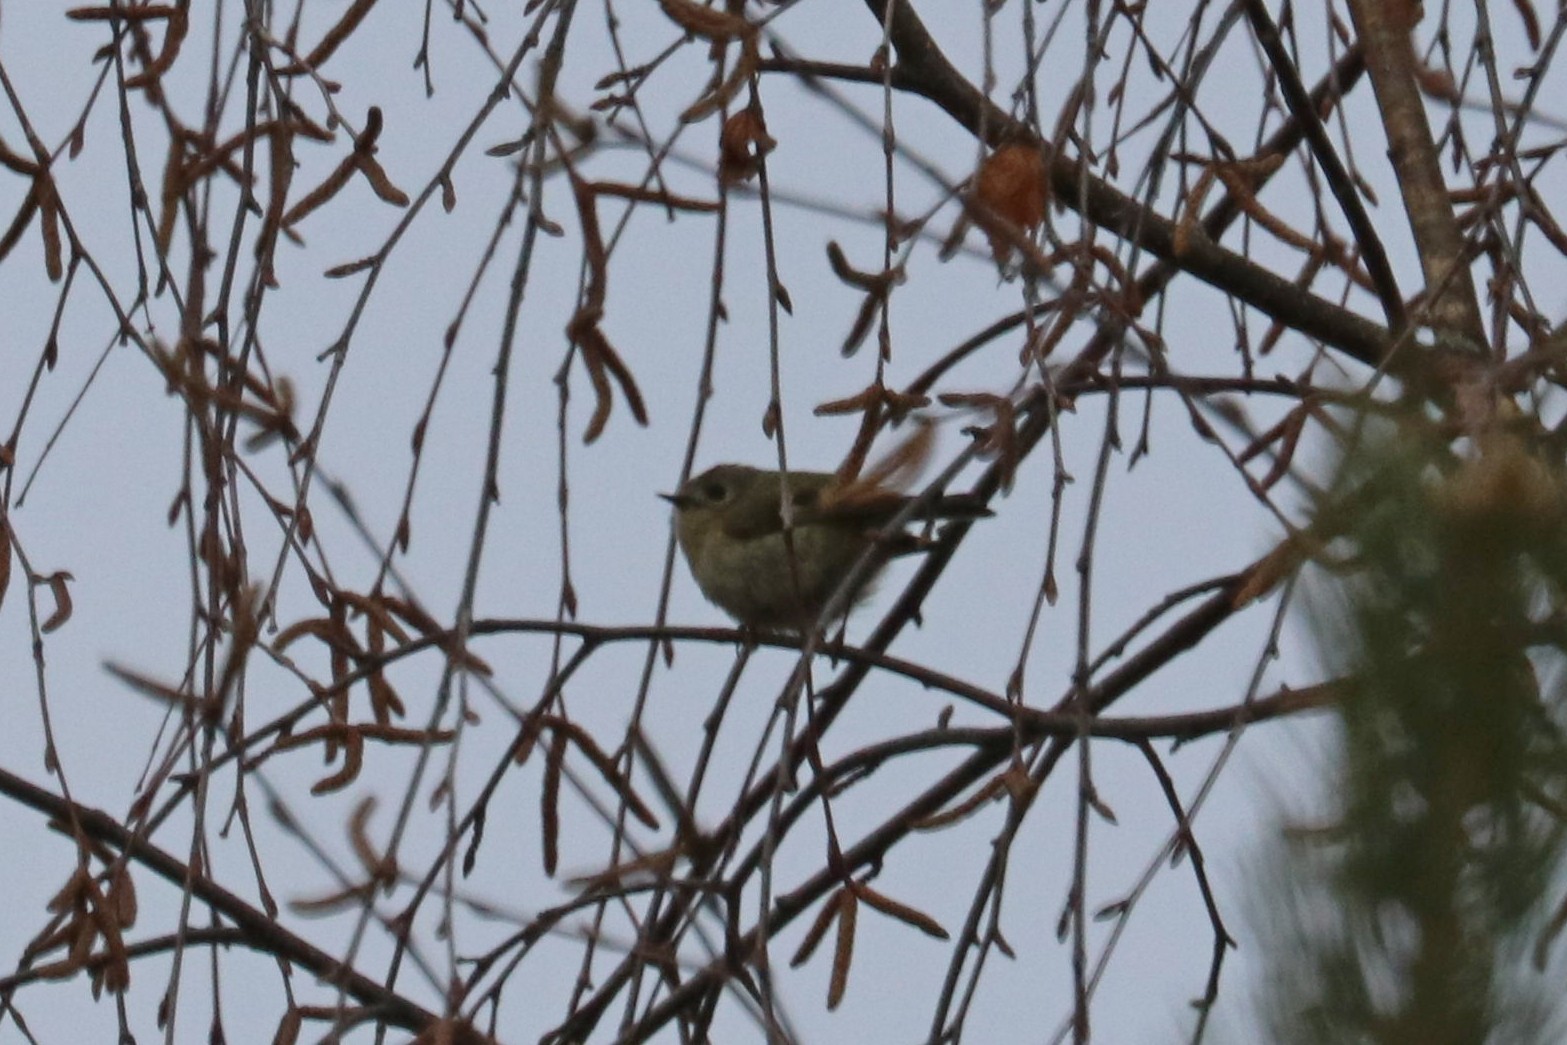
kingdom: Animalia
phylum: Chordata
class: Aves
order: Passeriformes
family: Regulidae
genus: Regulus
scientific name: Regulus regulus
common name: Goldcrest
